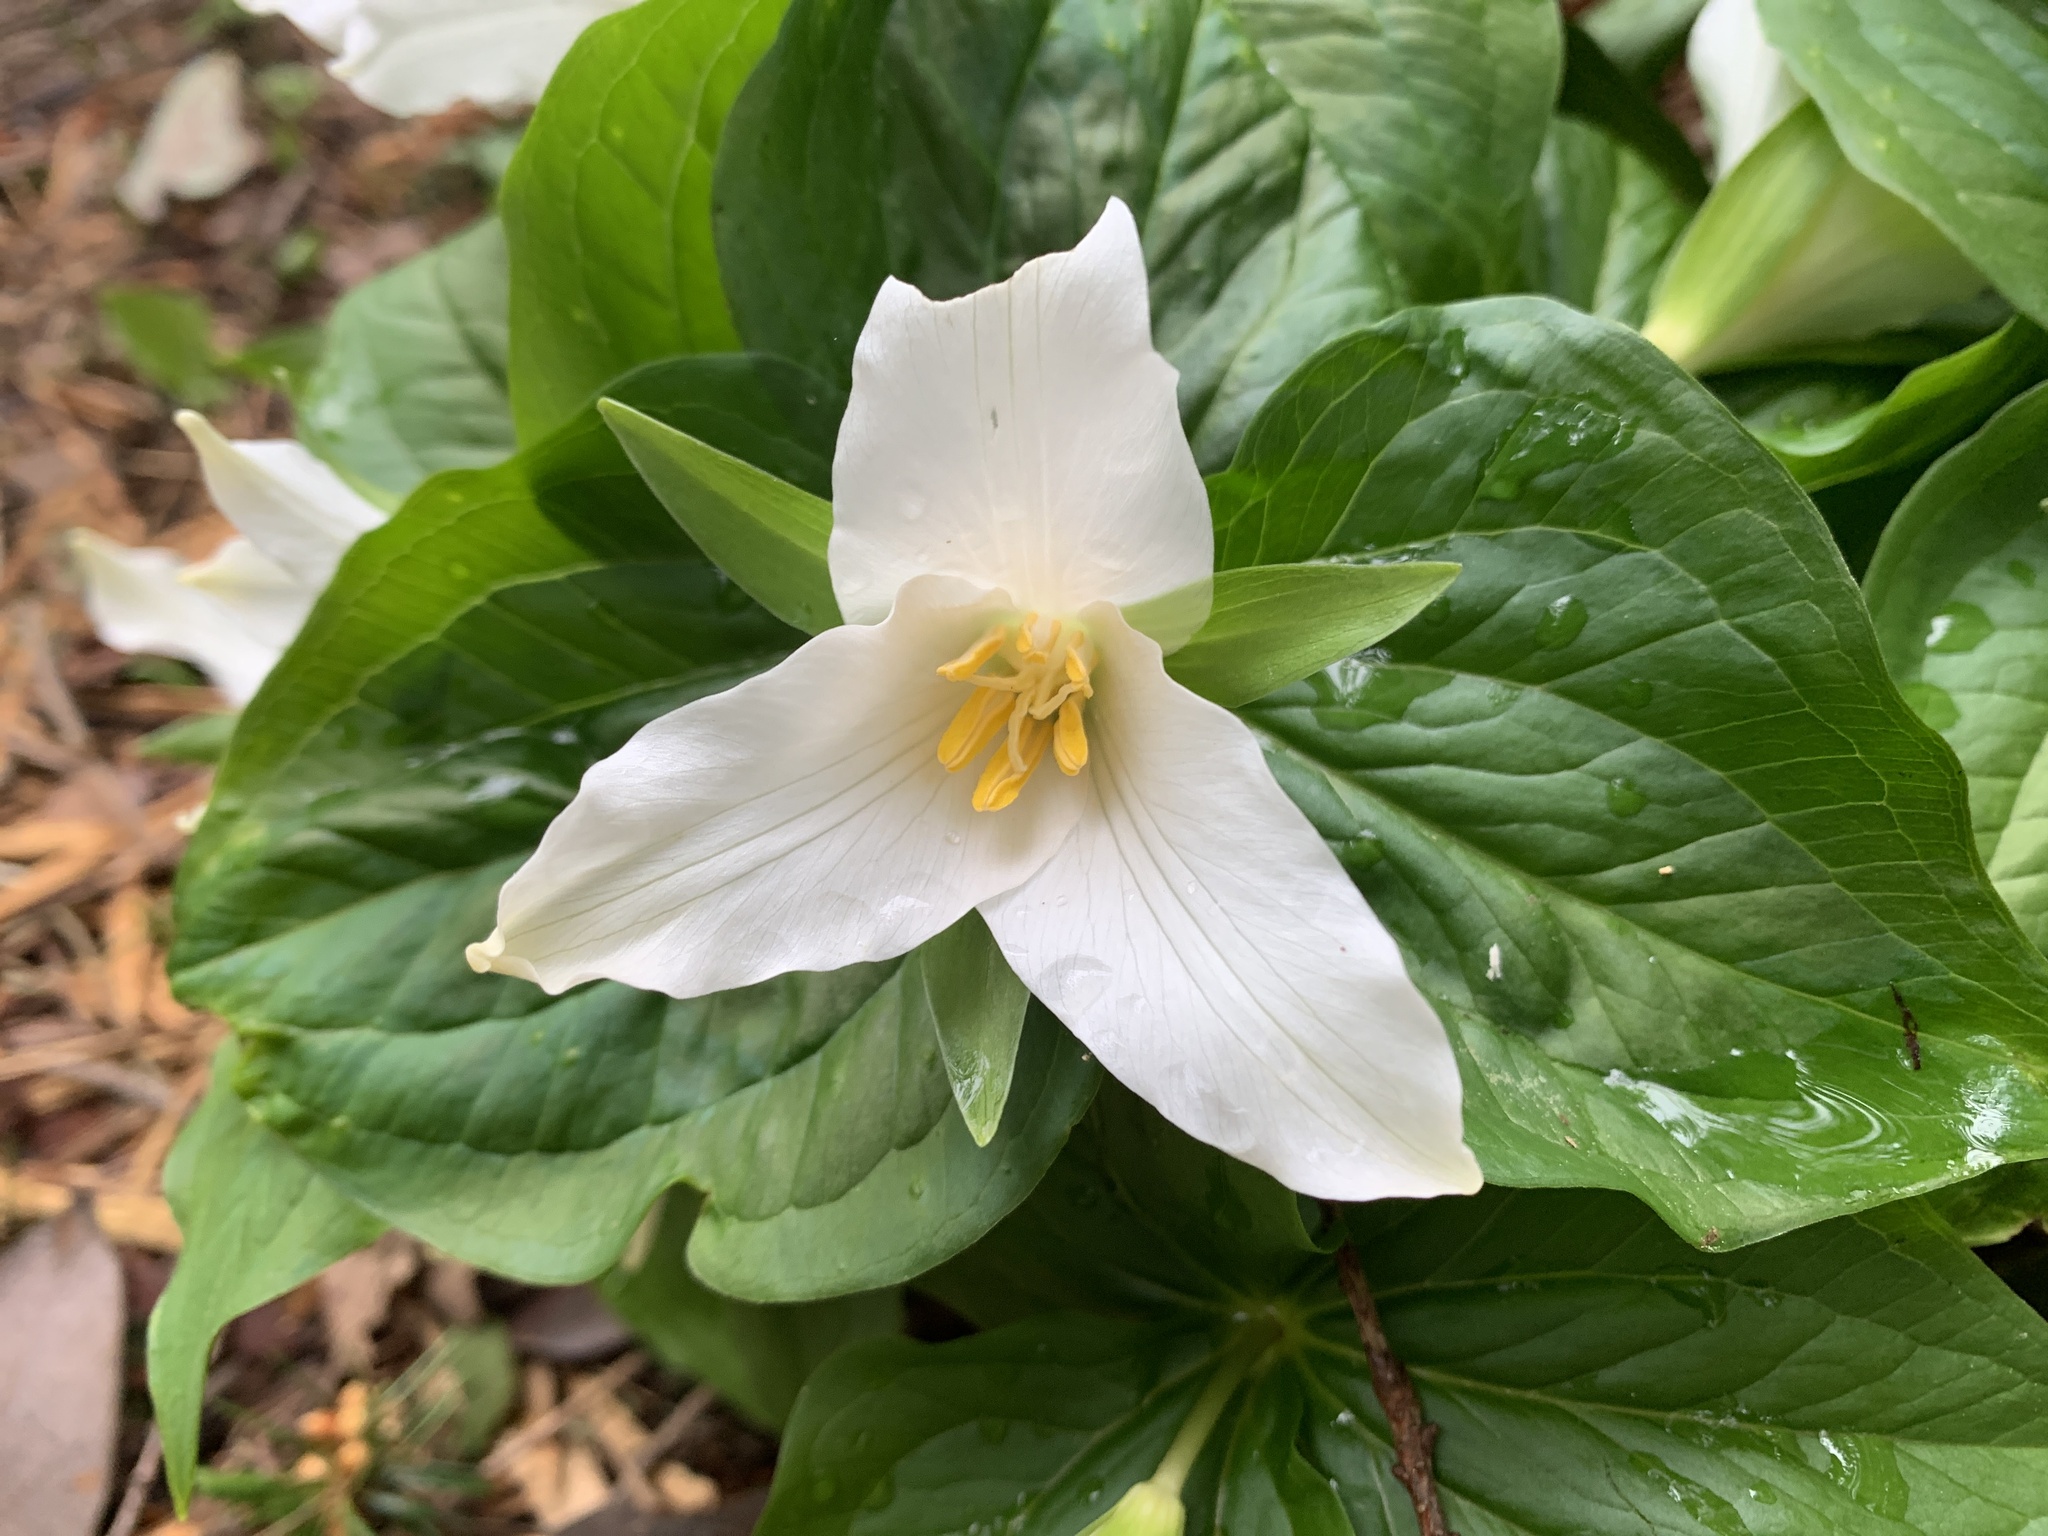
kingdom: Plantae
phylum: Tracheophyta
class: Liliopsida
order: Liliales
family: Melanthiaceae
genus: Trillium
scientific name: Trillium ovatum
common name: Pacific trillium
